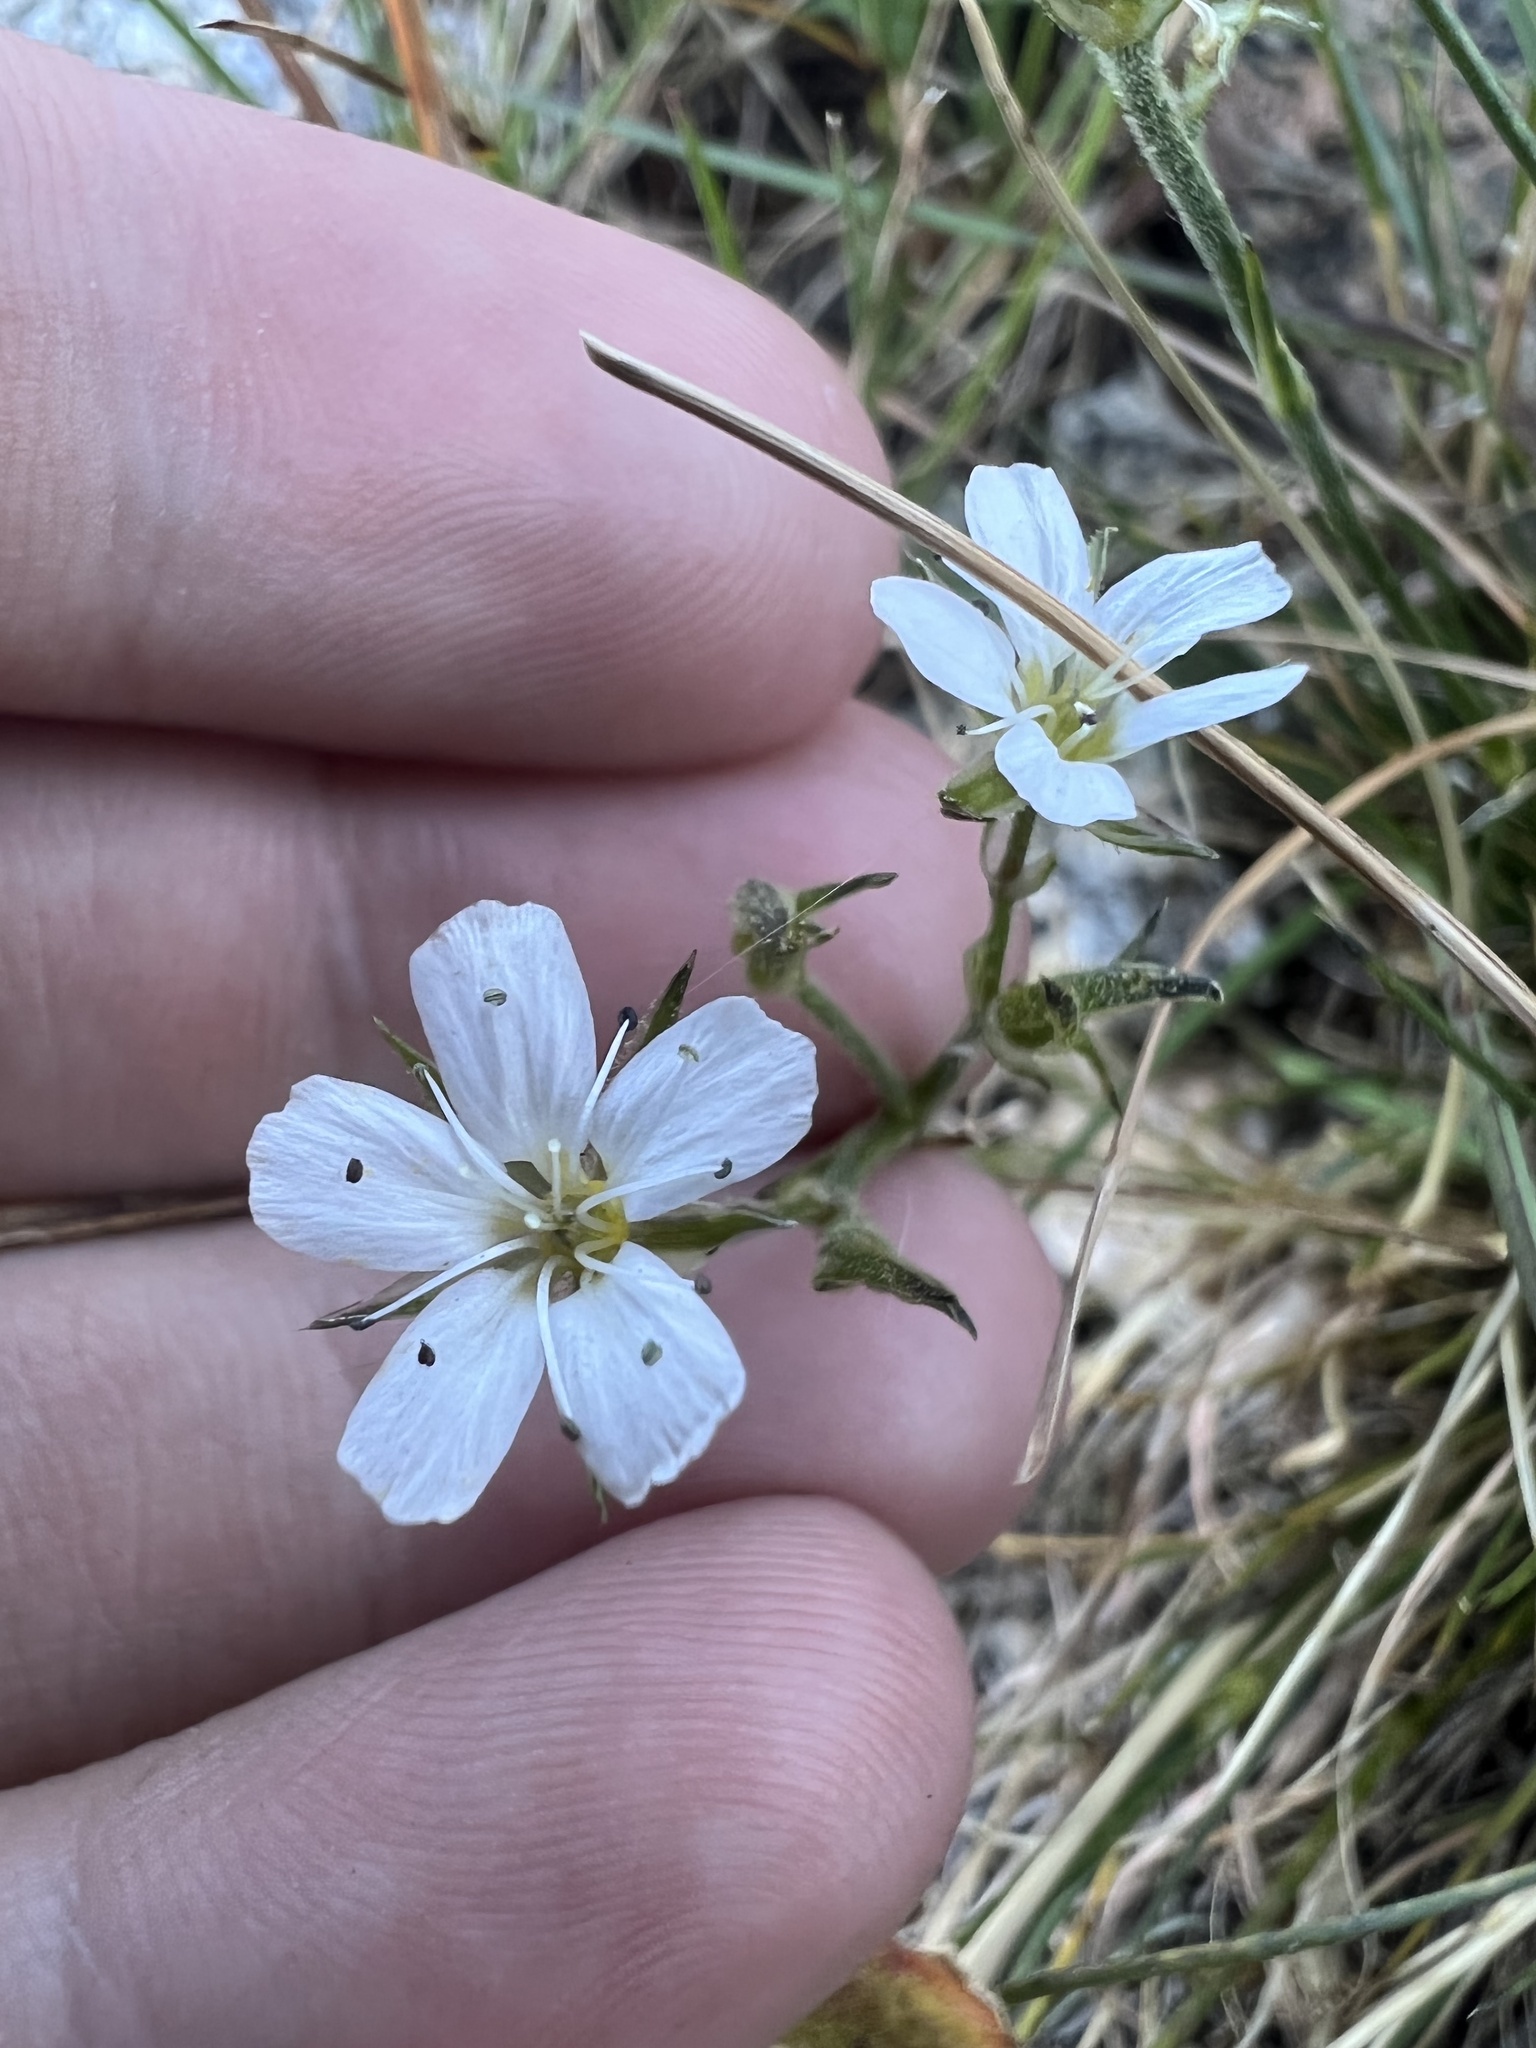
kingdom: Plantae
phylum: Tracheophyta
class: Magnoliopsida
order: Caryophyllales
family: Caryophyllaceae
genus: Eremogone
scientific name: Eremogone fendleri
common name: Fendler's sandwort
